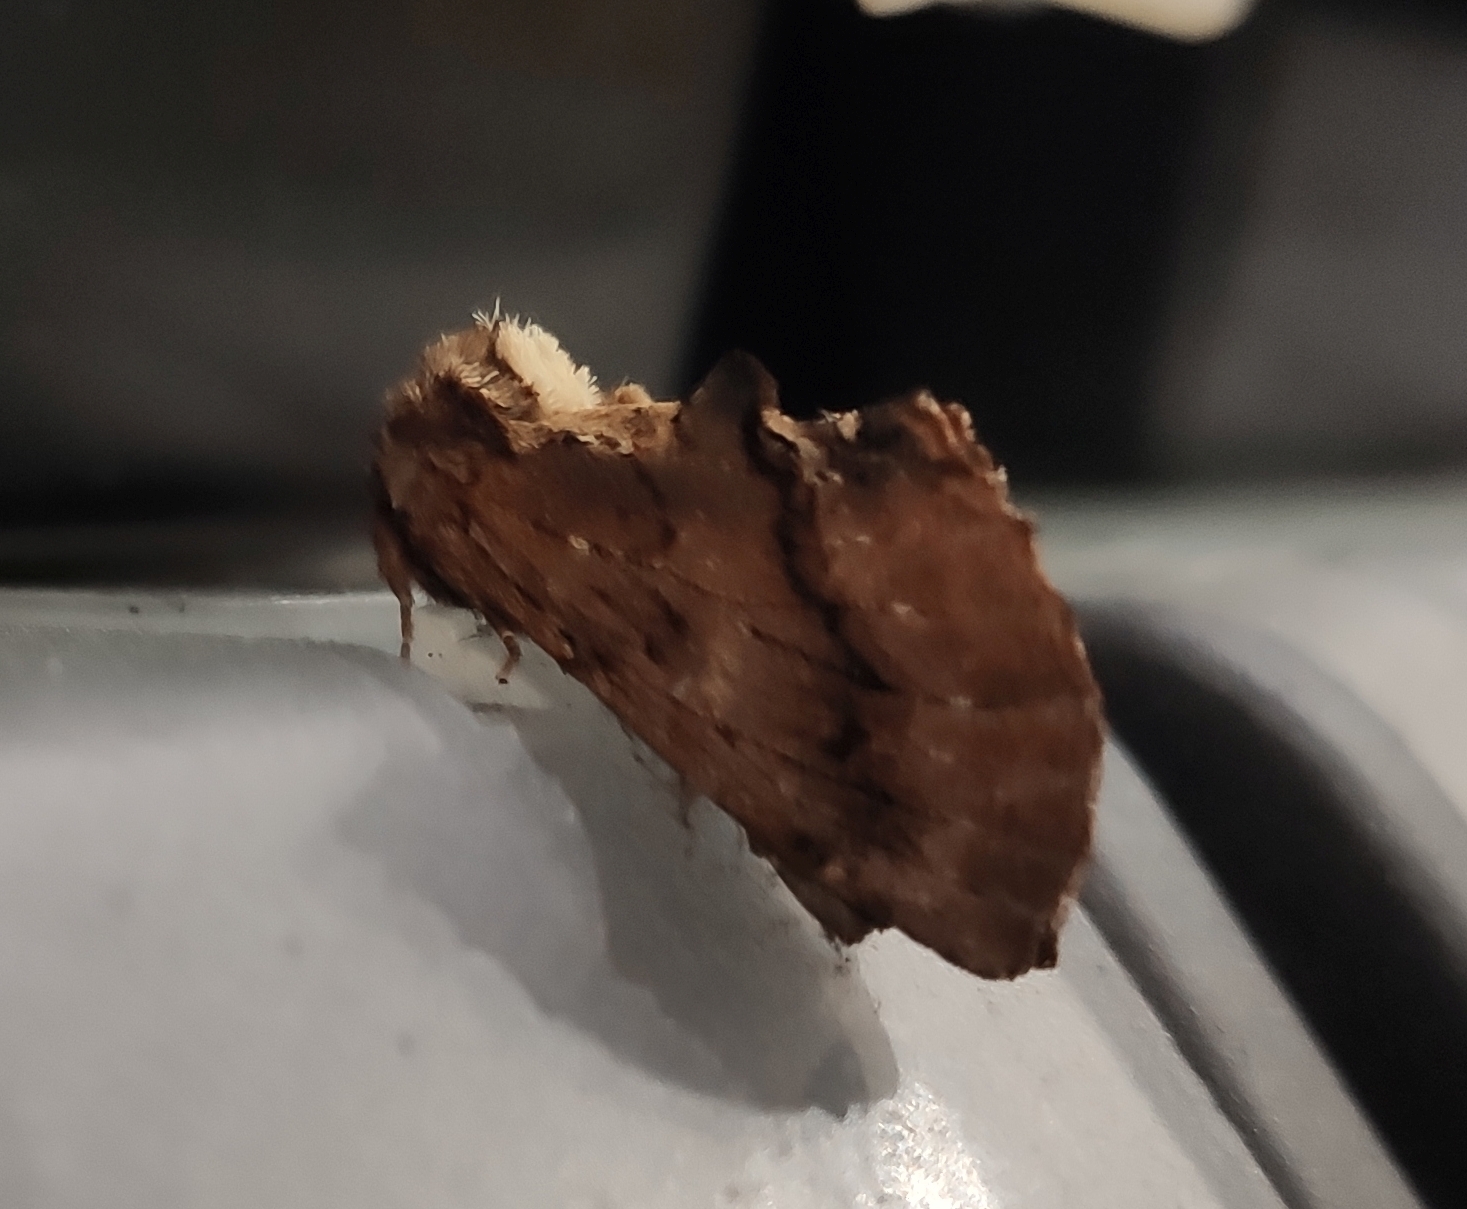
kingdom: Animalia
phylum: Arthropoda
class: Insecta
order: Lepidoptera
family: Notodontidae
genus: Ptilodon
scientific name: Ptilodon capucina
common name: Coxcomb prominent
